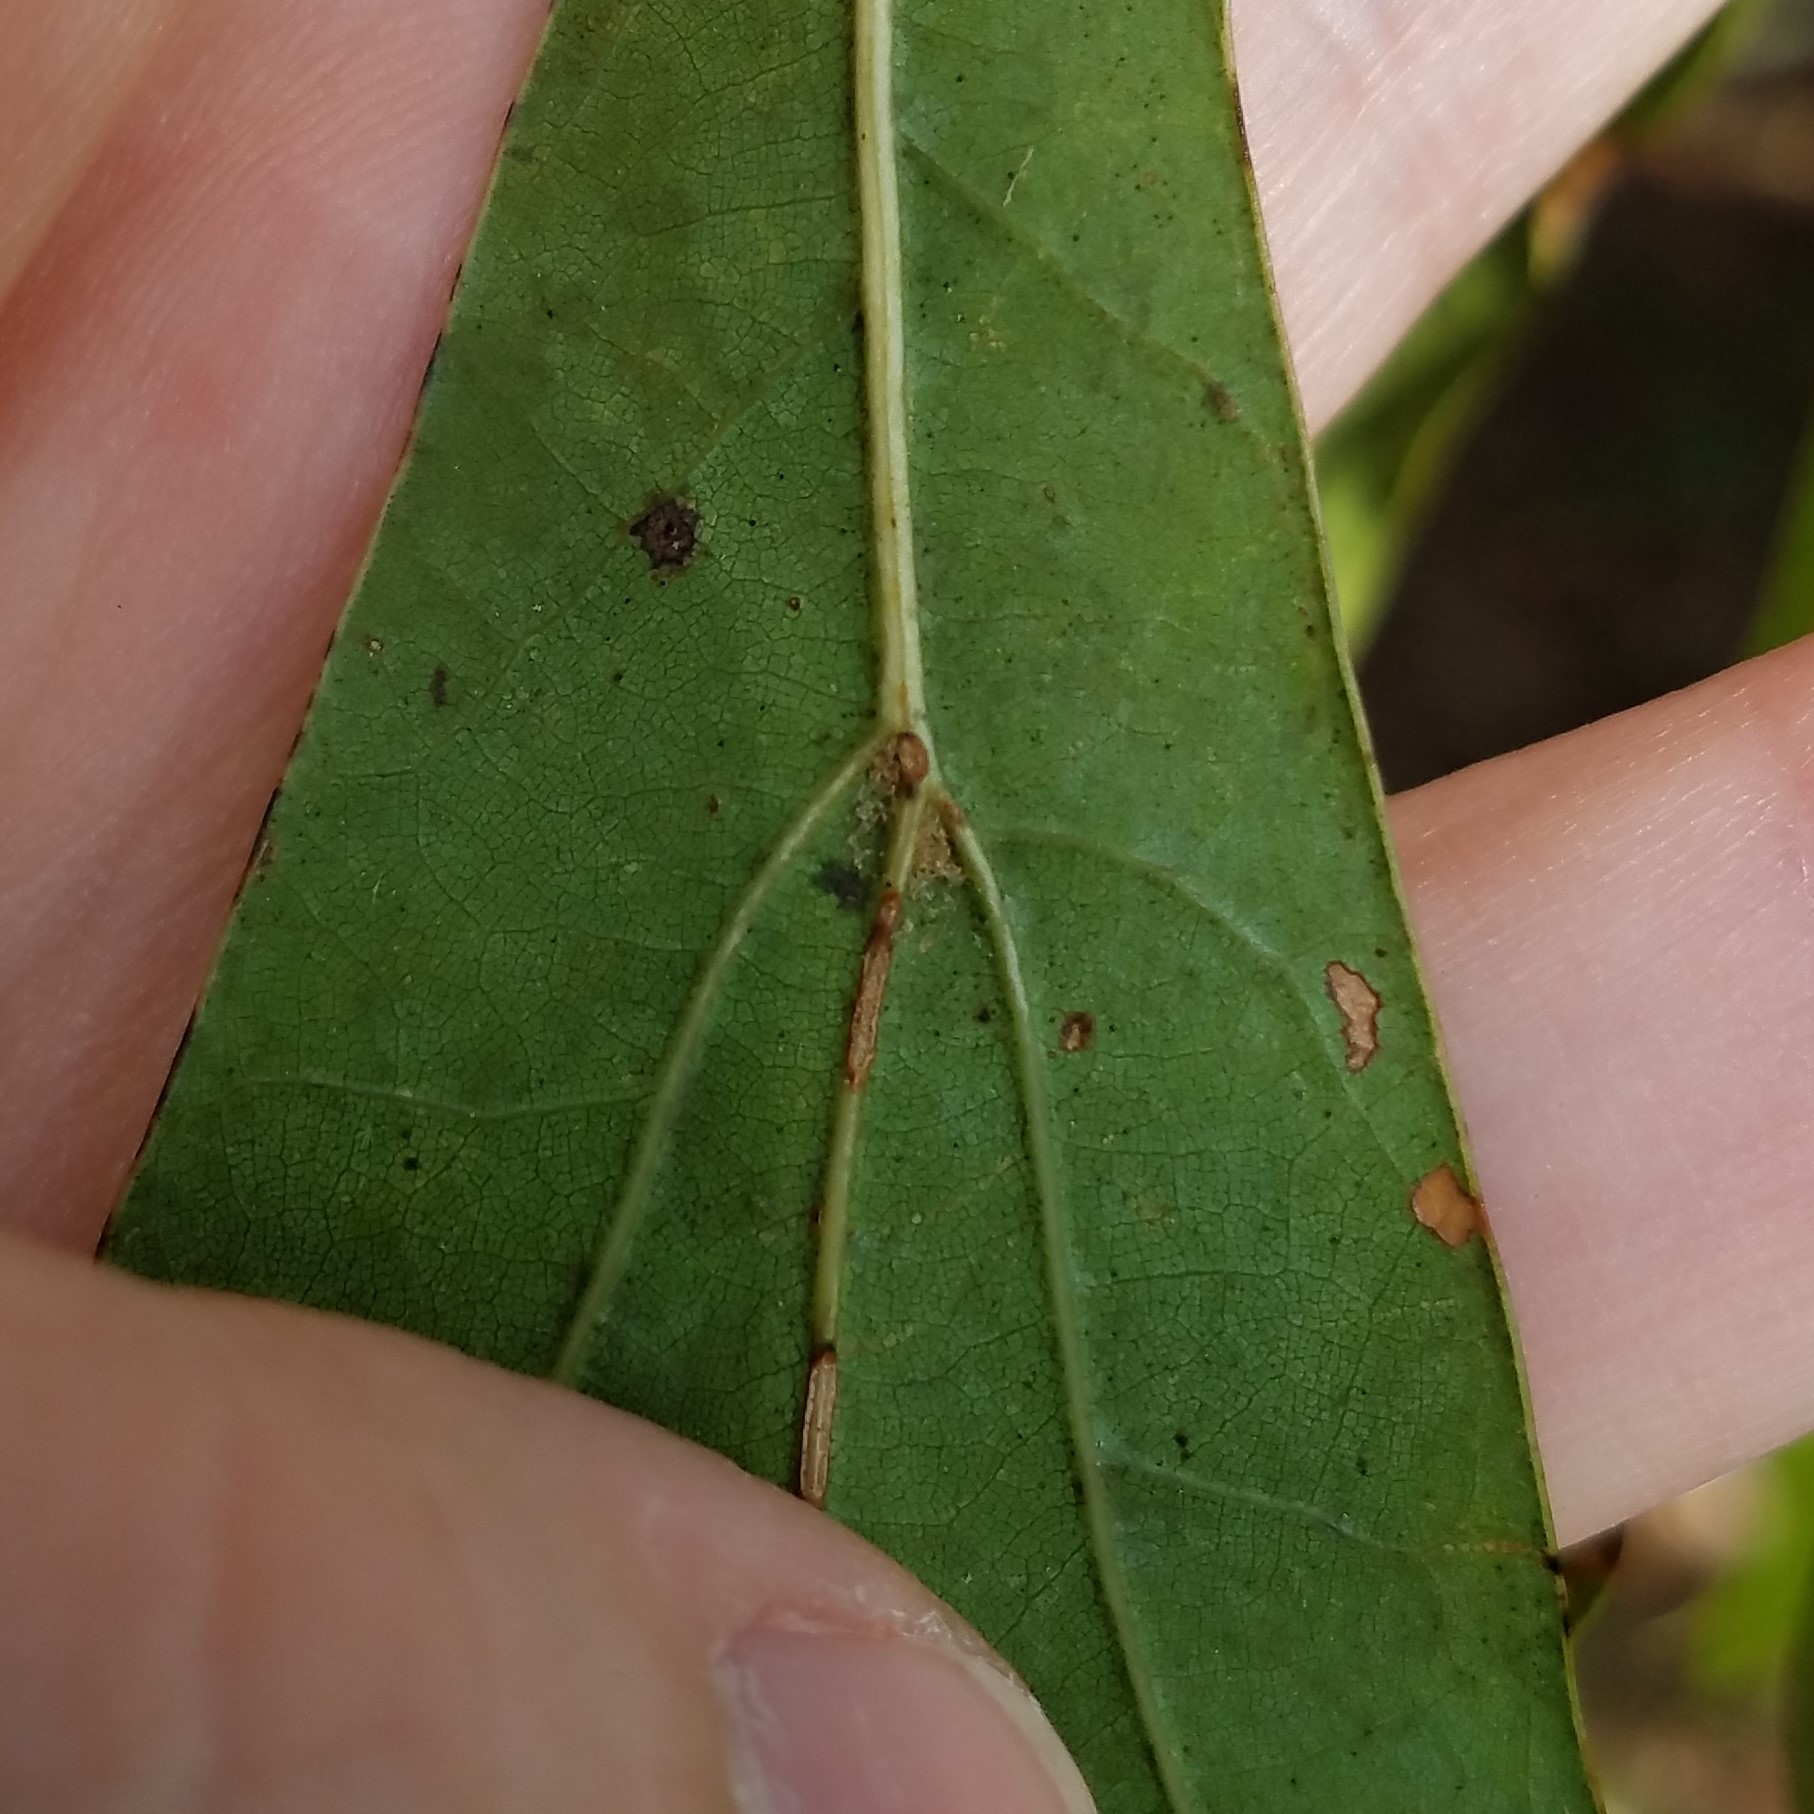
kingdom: Plantae
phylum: Tracheophyta
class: Magnoliopsida
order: Fagales
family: Fagaceae
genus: Quercus
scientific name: Quercus nigra
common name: Water oak
